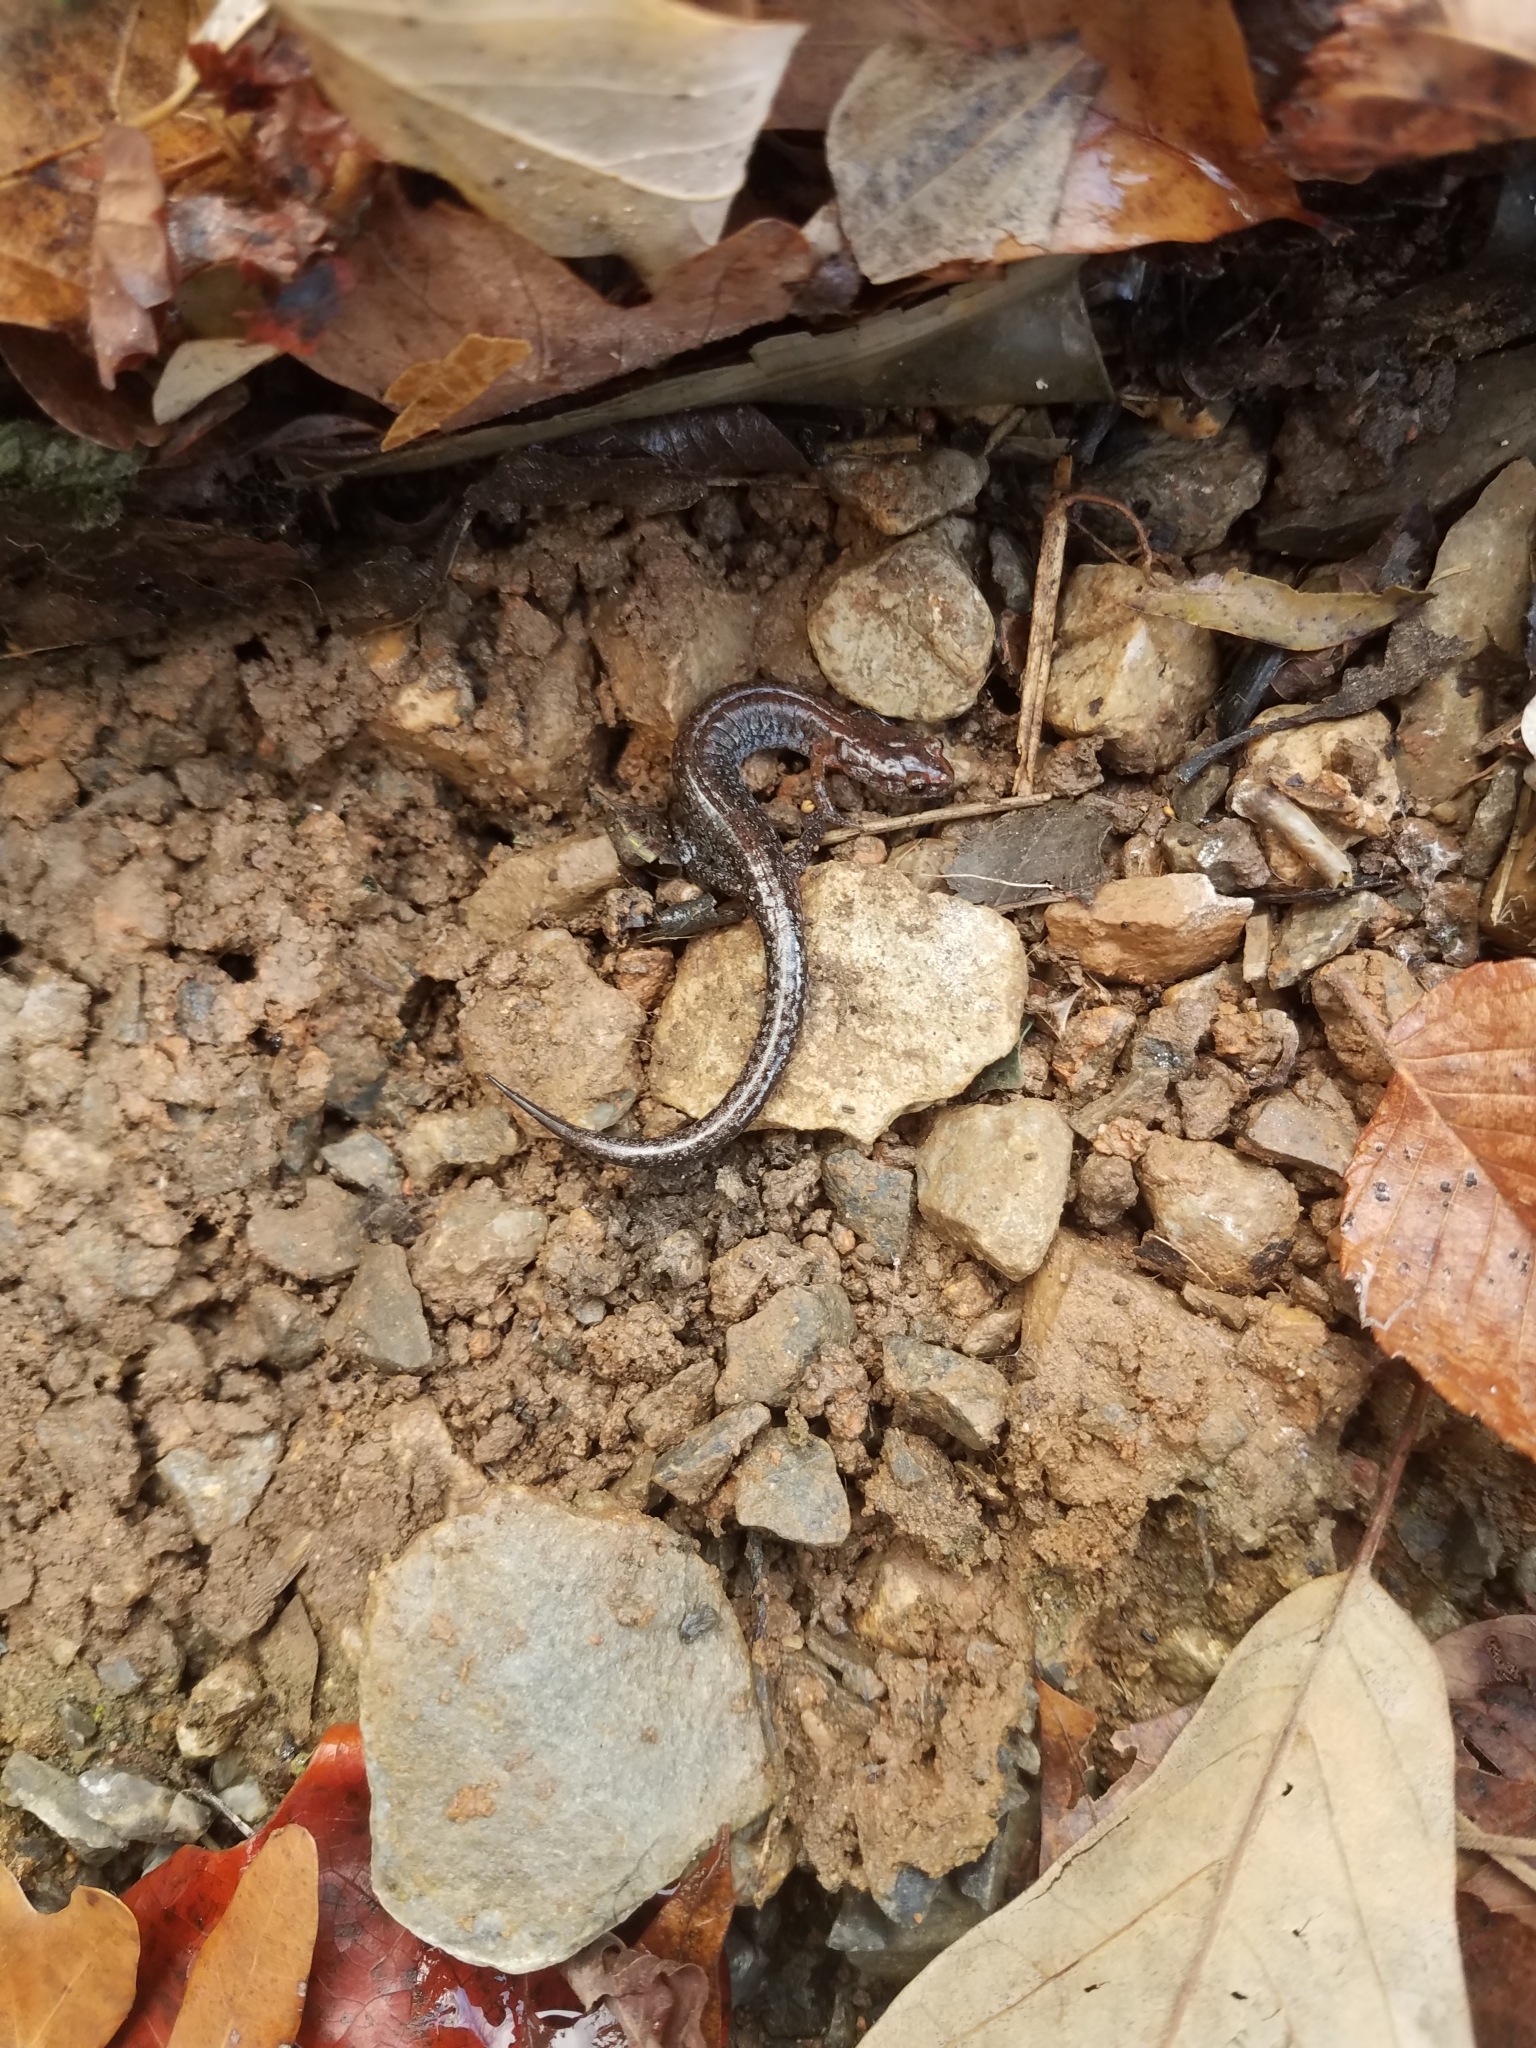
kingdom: Animalia
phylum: Chordata
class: Amphibia
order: Caudata
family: Plethodontidae
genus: Plethodon
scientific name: Plethodon
